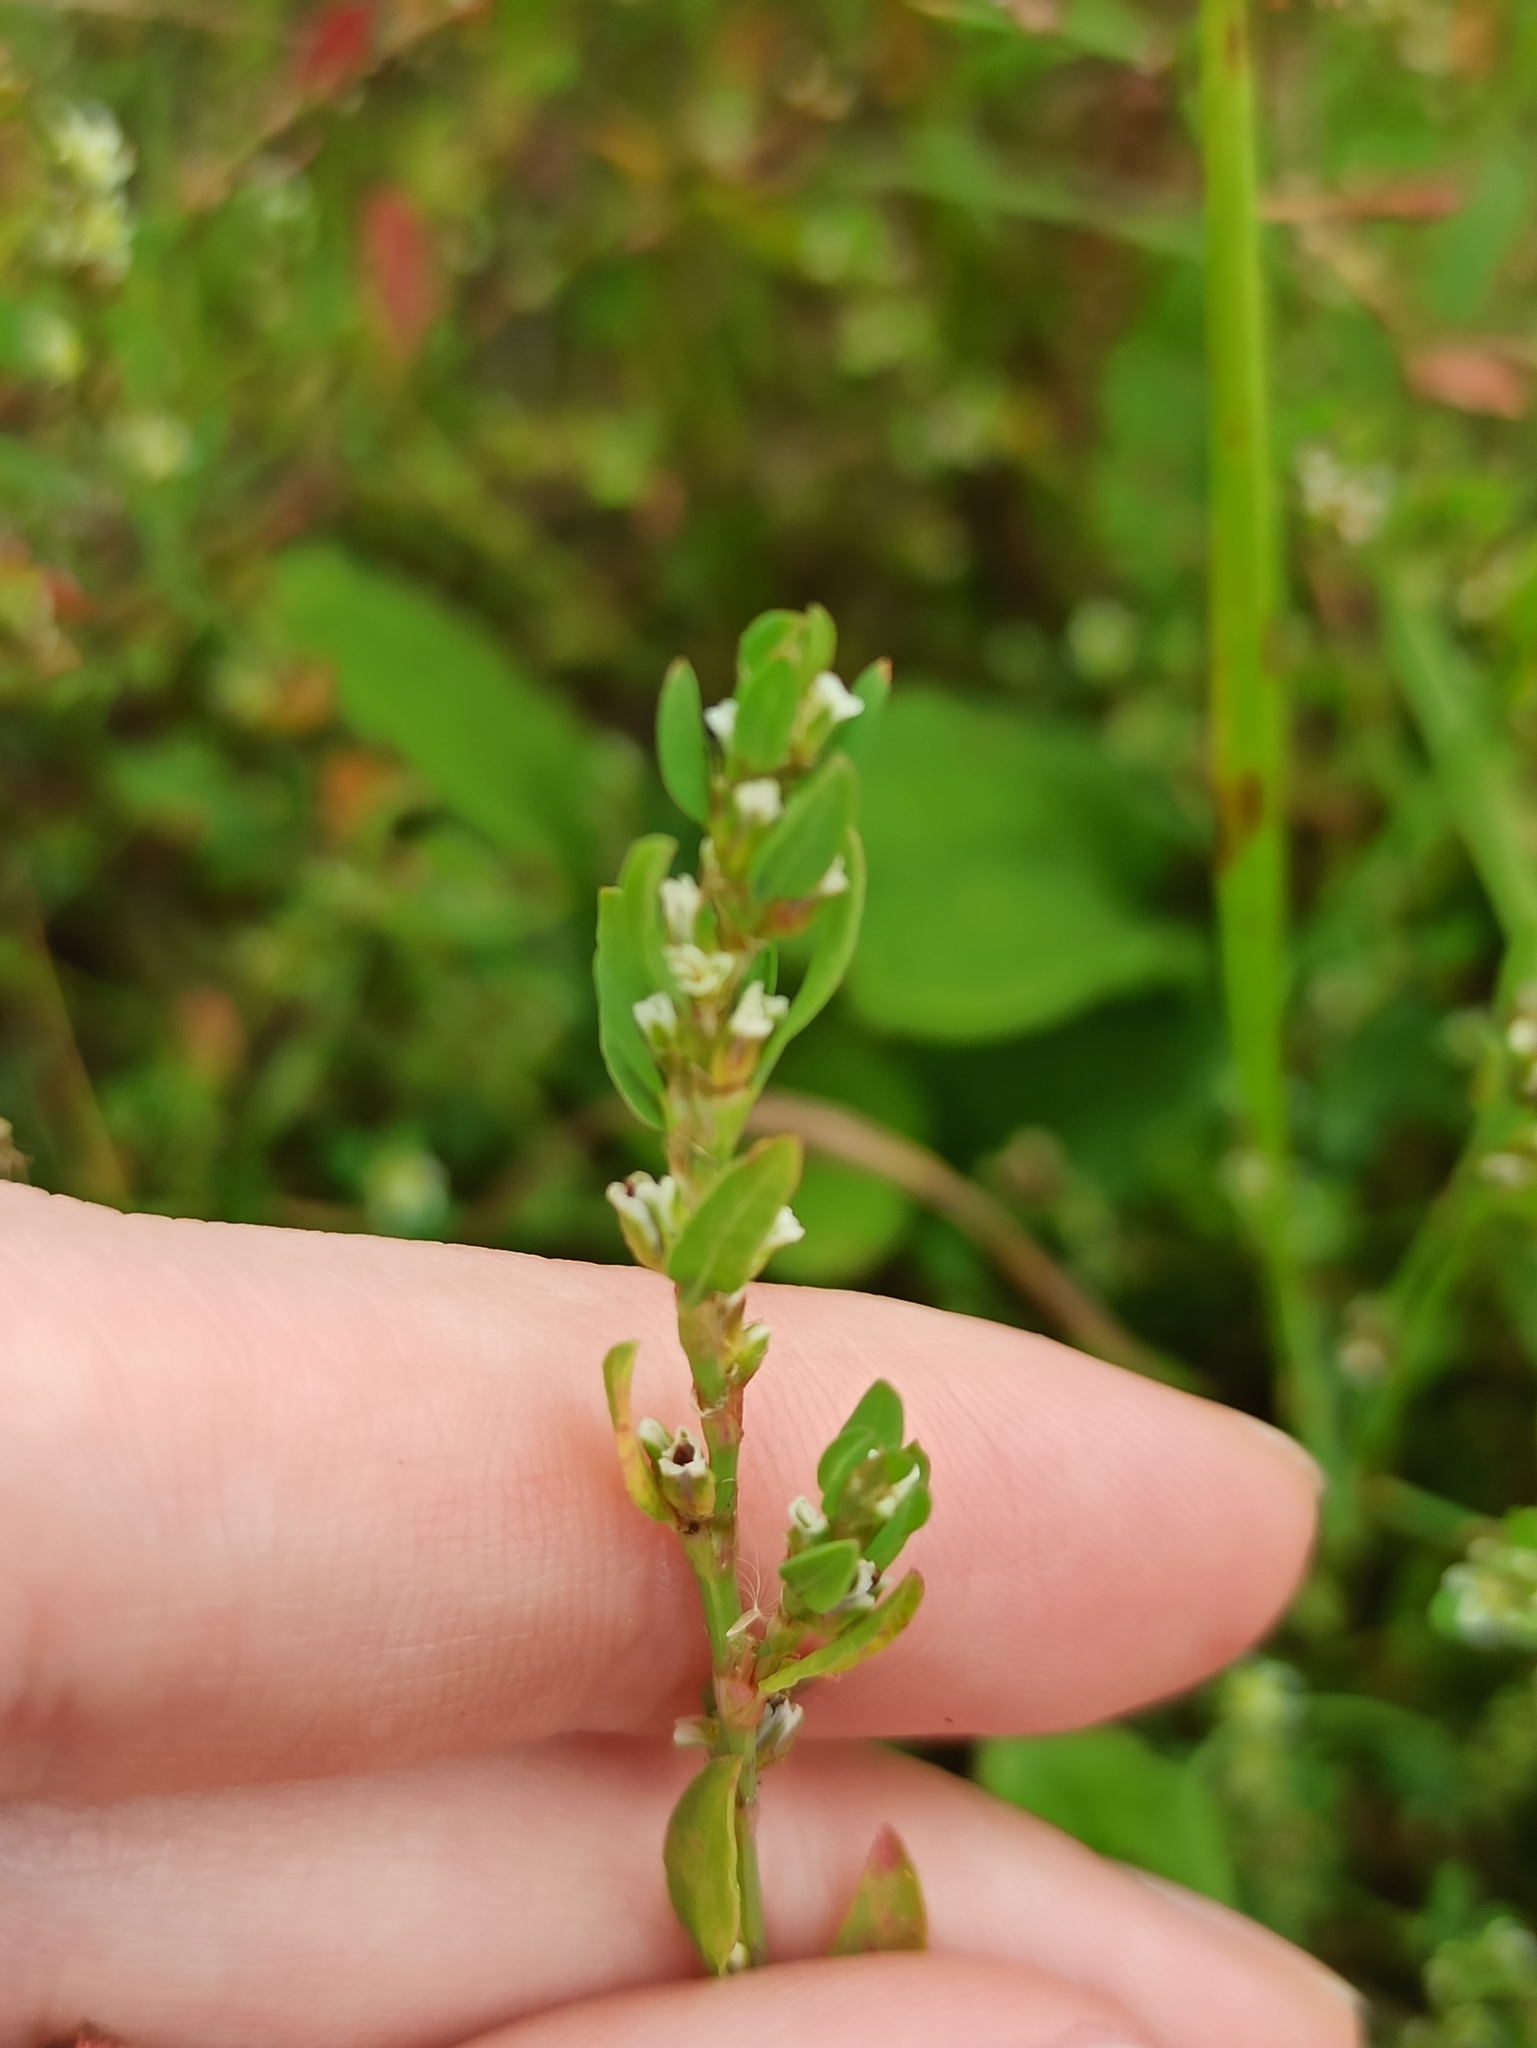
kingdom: Plantae
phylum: Tracheophyta
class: Magnoliopsida
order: Caryophyllales
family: Polygonaceae
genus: Polygonum
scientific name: Polygonum aviculare
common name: Prostrate knotweed
